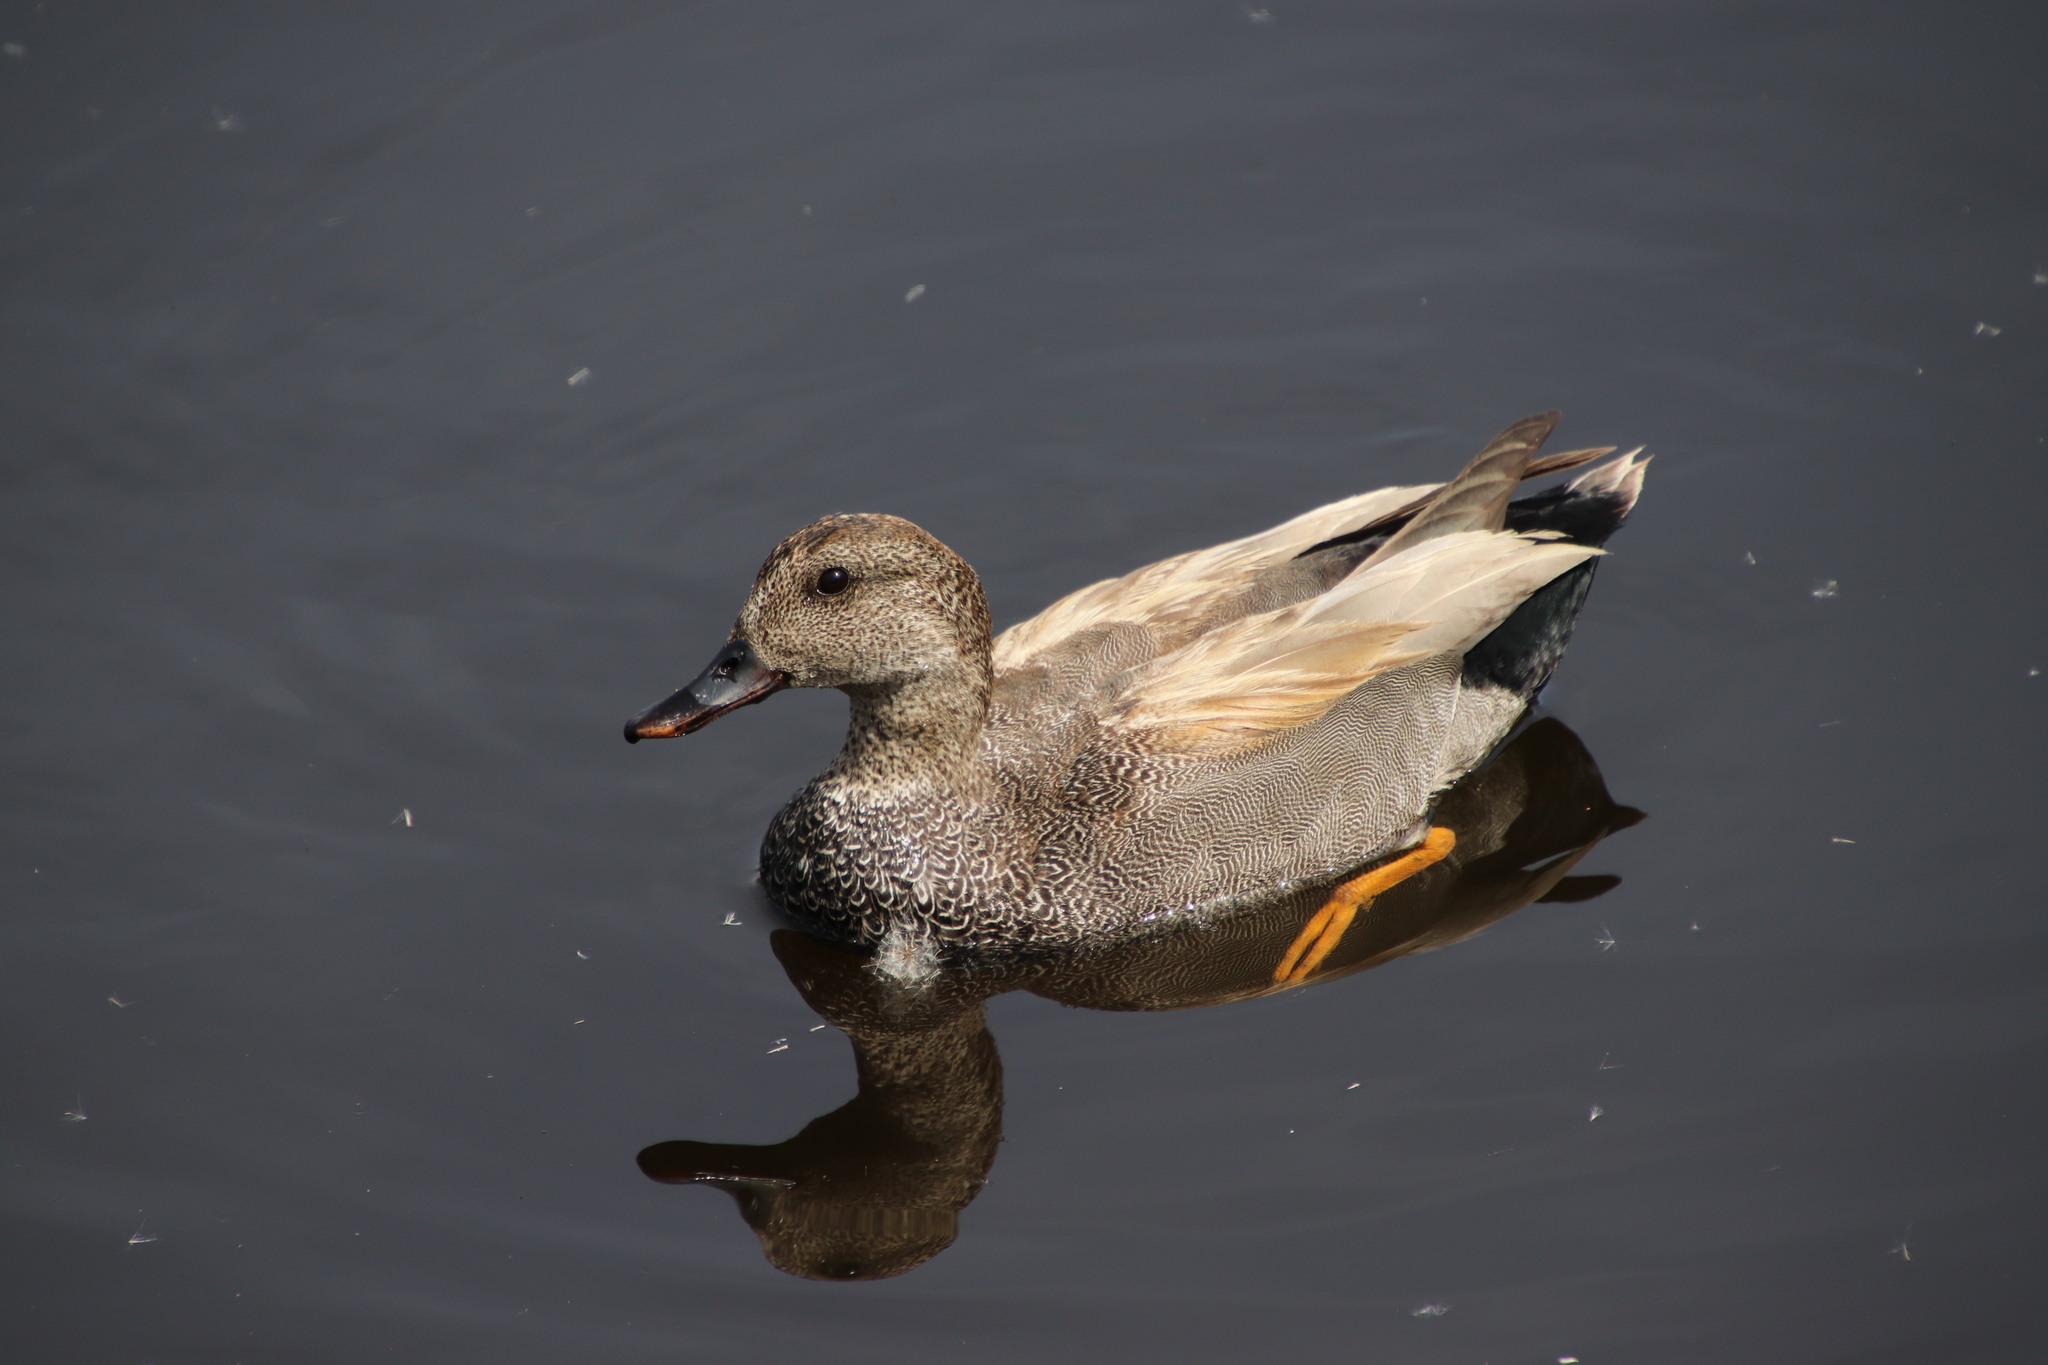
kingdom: Animalia
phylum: Chordata
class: Aves
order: Anseriformes
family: Anatidae
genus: Mareca
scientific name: Mareca strepera
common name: Gadwall
